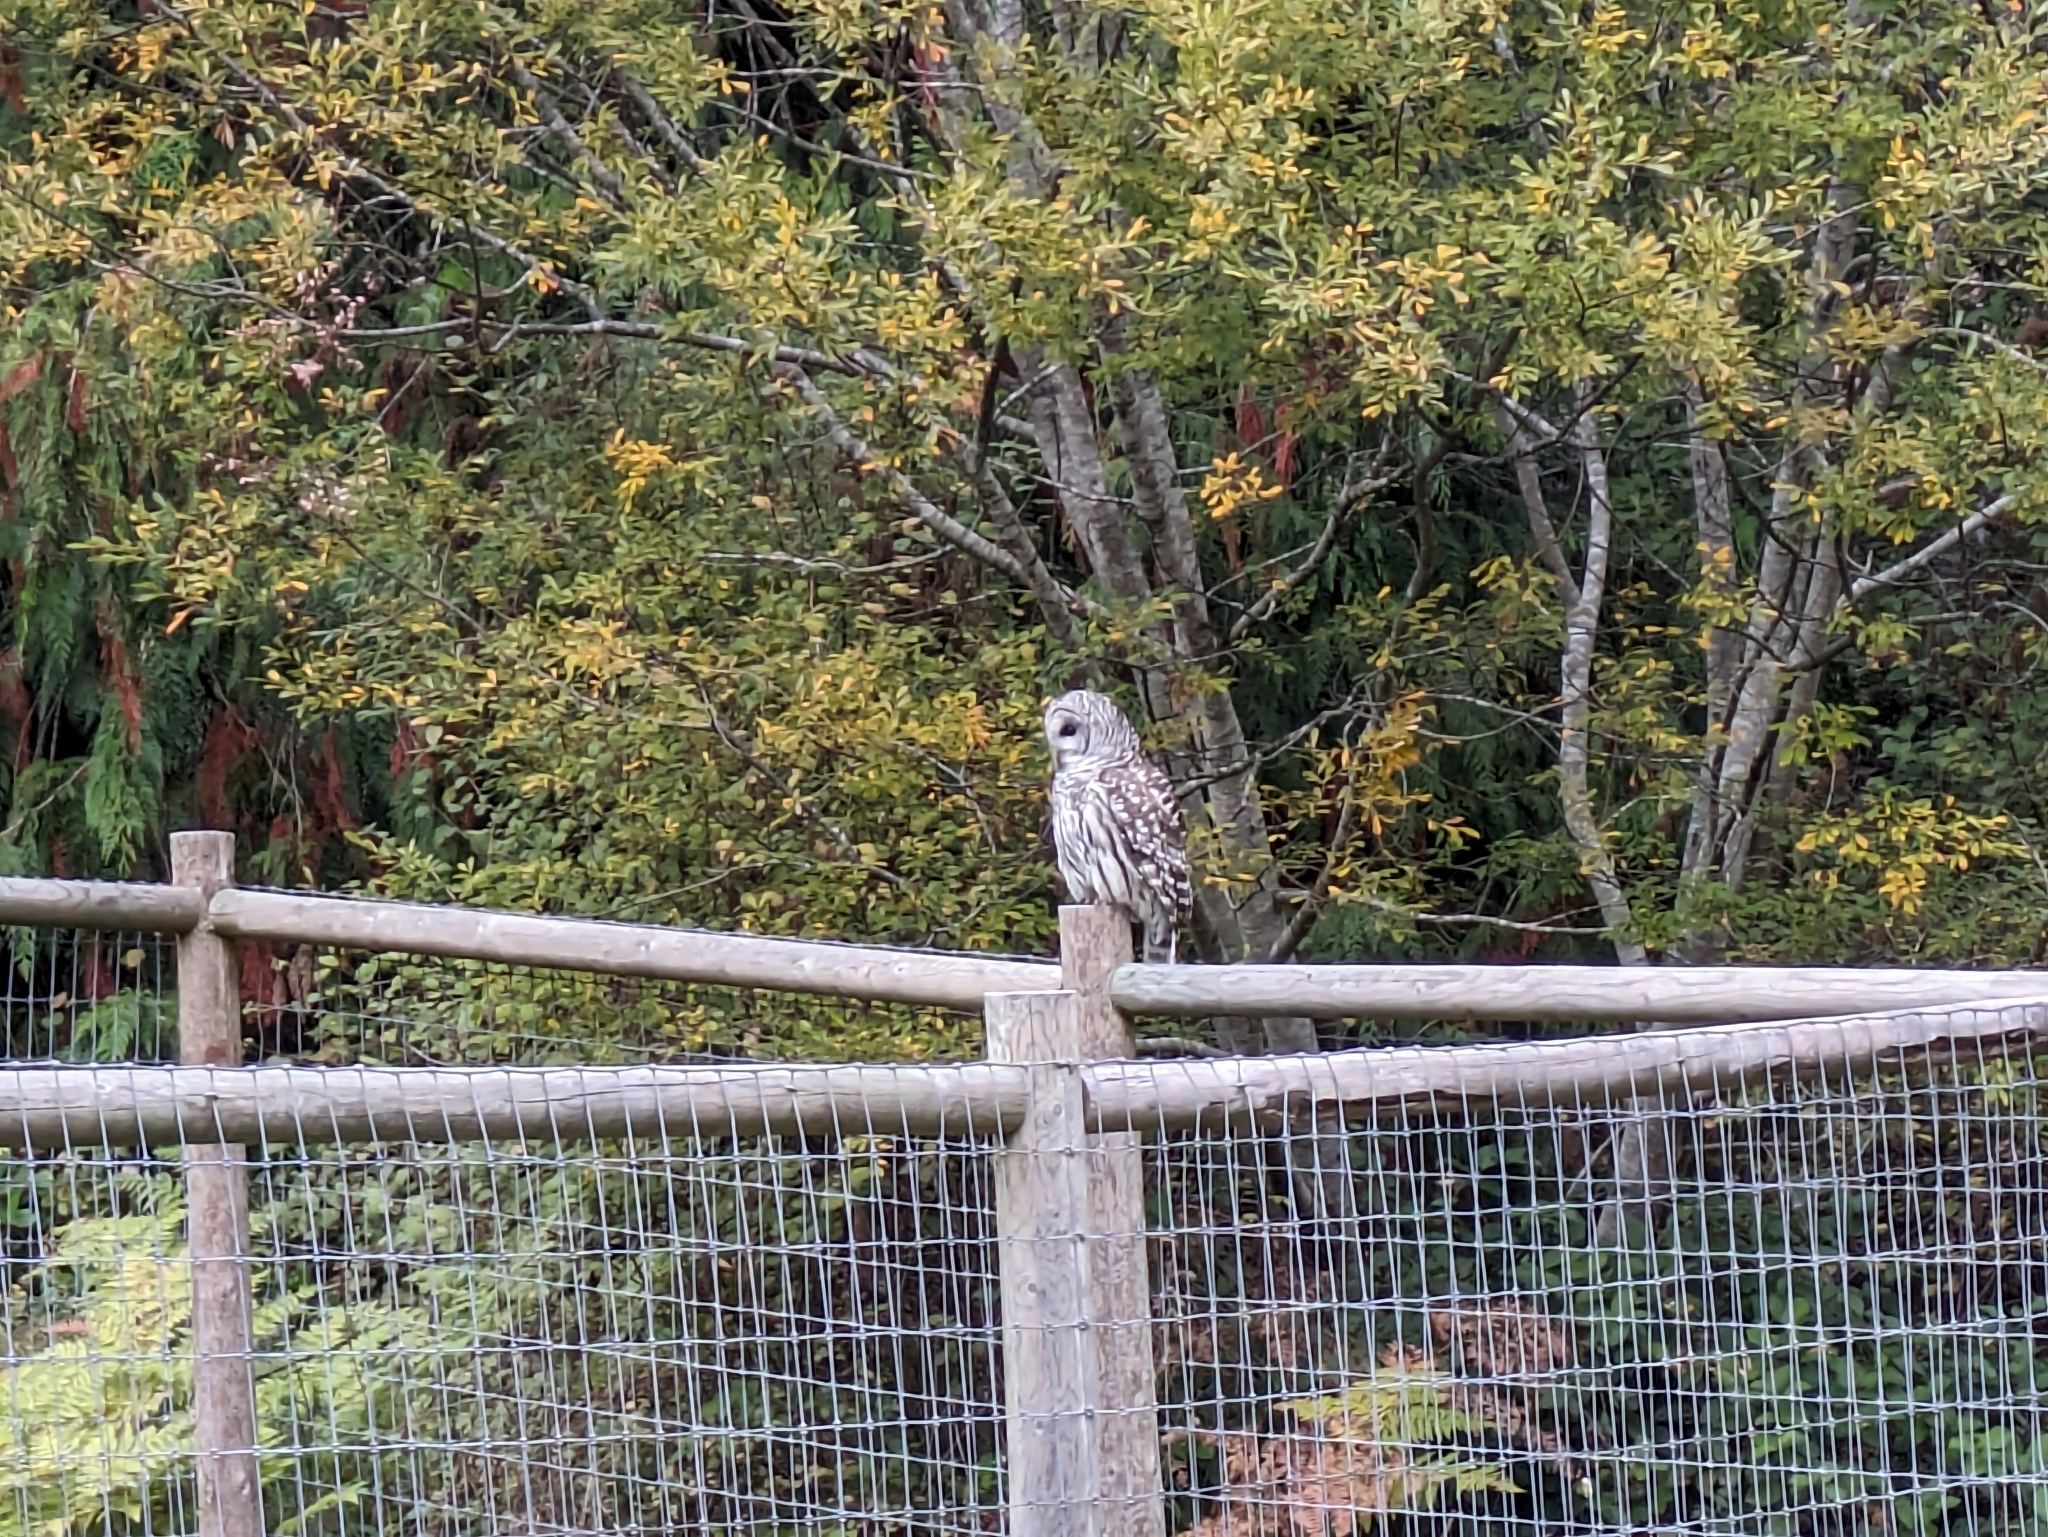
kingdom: Animalia
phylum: Chordata
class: Aves
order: Strigiformes
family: Strigidae
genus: Strix
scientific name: Strix varia
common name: Barred owl
